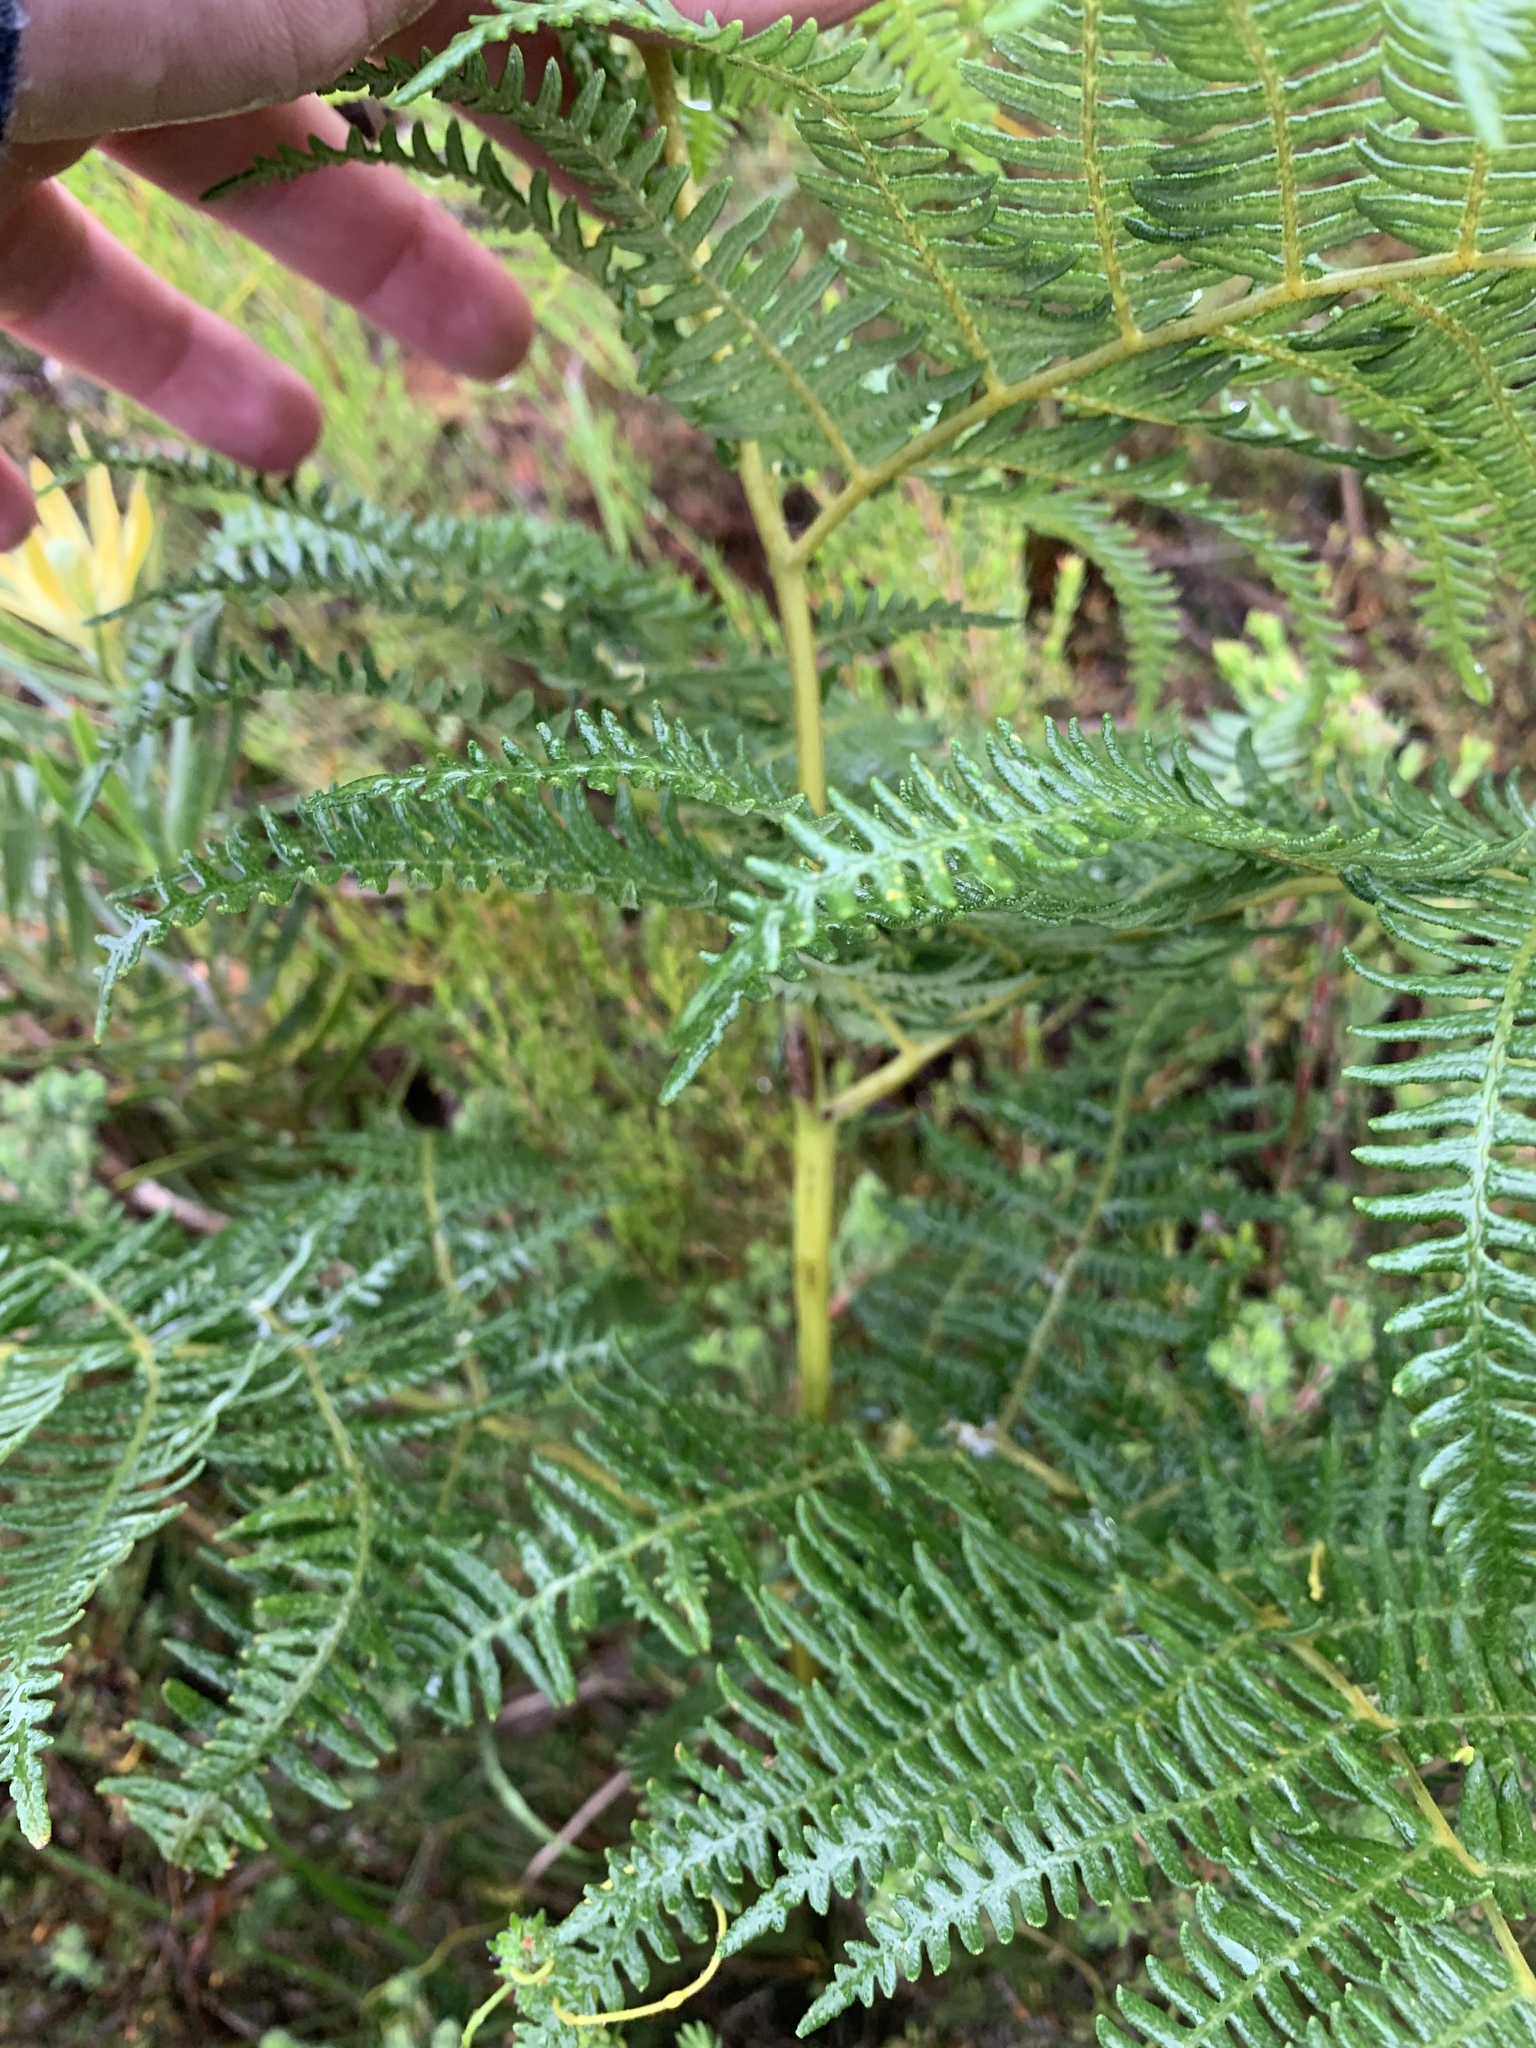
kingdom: Plantae
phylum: Tracheophyta
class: Polypodiopsida
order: Polypodiales
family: Dennstaedtiaceae
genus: Pteridium
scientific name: Pteridium aquilinum
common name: Bracken
